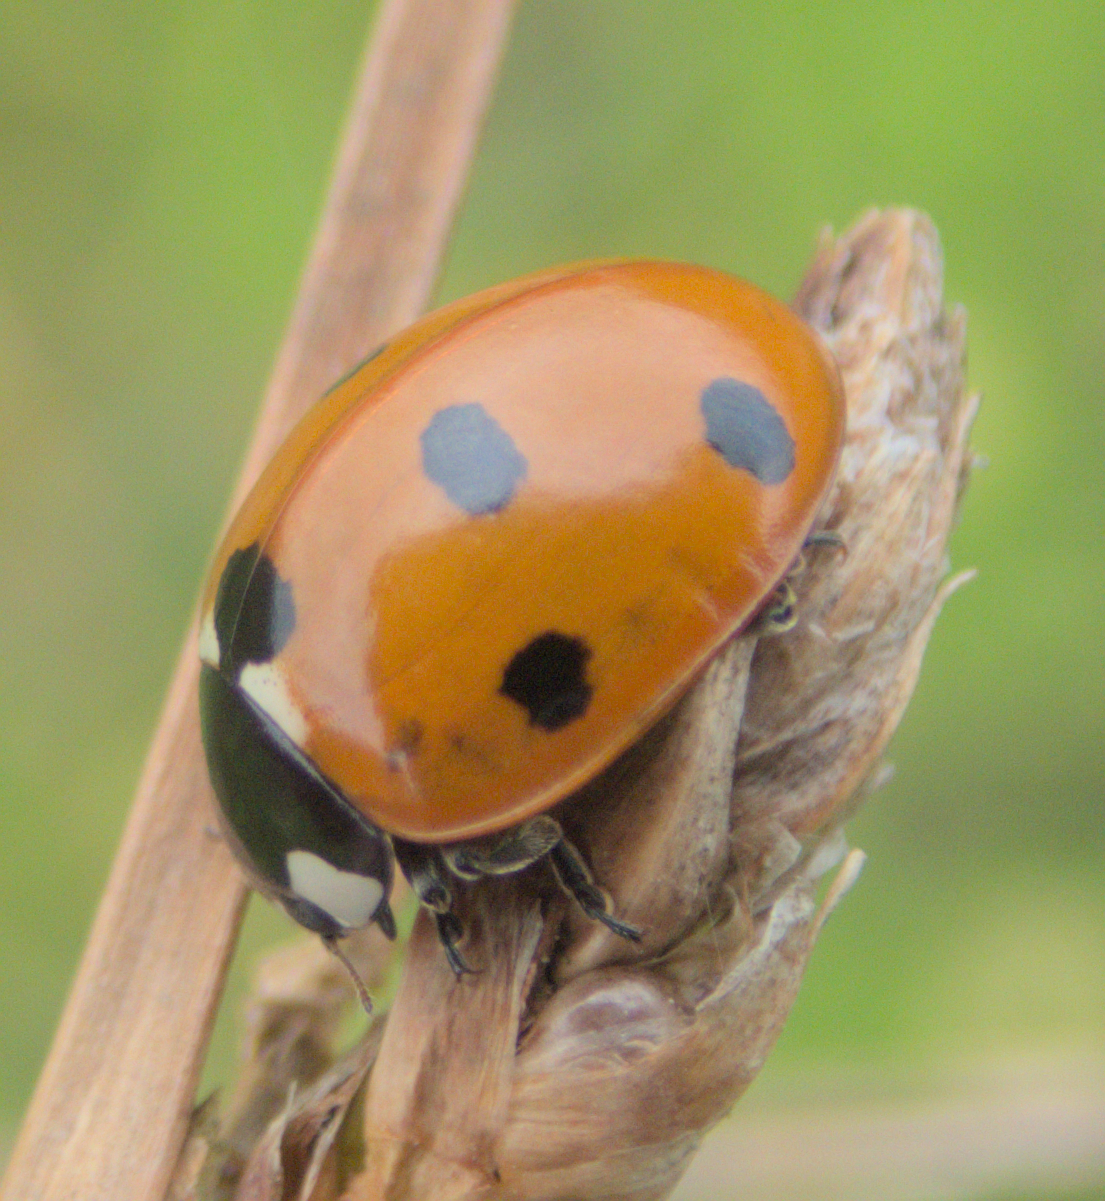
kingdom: Animalia
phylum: Arthropoda
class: Insecta
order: Coleoptera
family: Coccinellidae
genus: Coccinella
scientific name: Coccinella septempunctata
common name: Sevenspotted lady beetle
